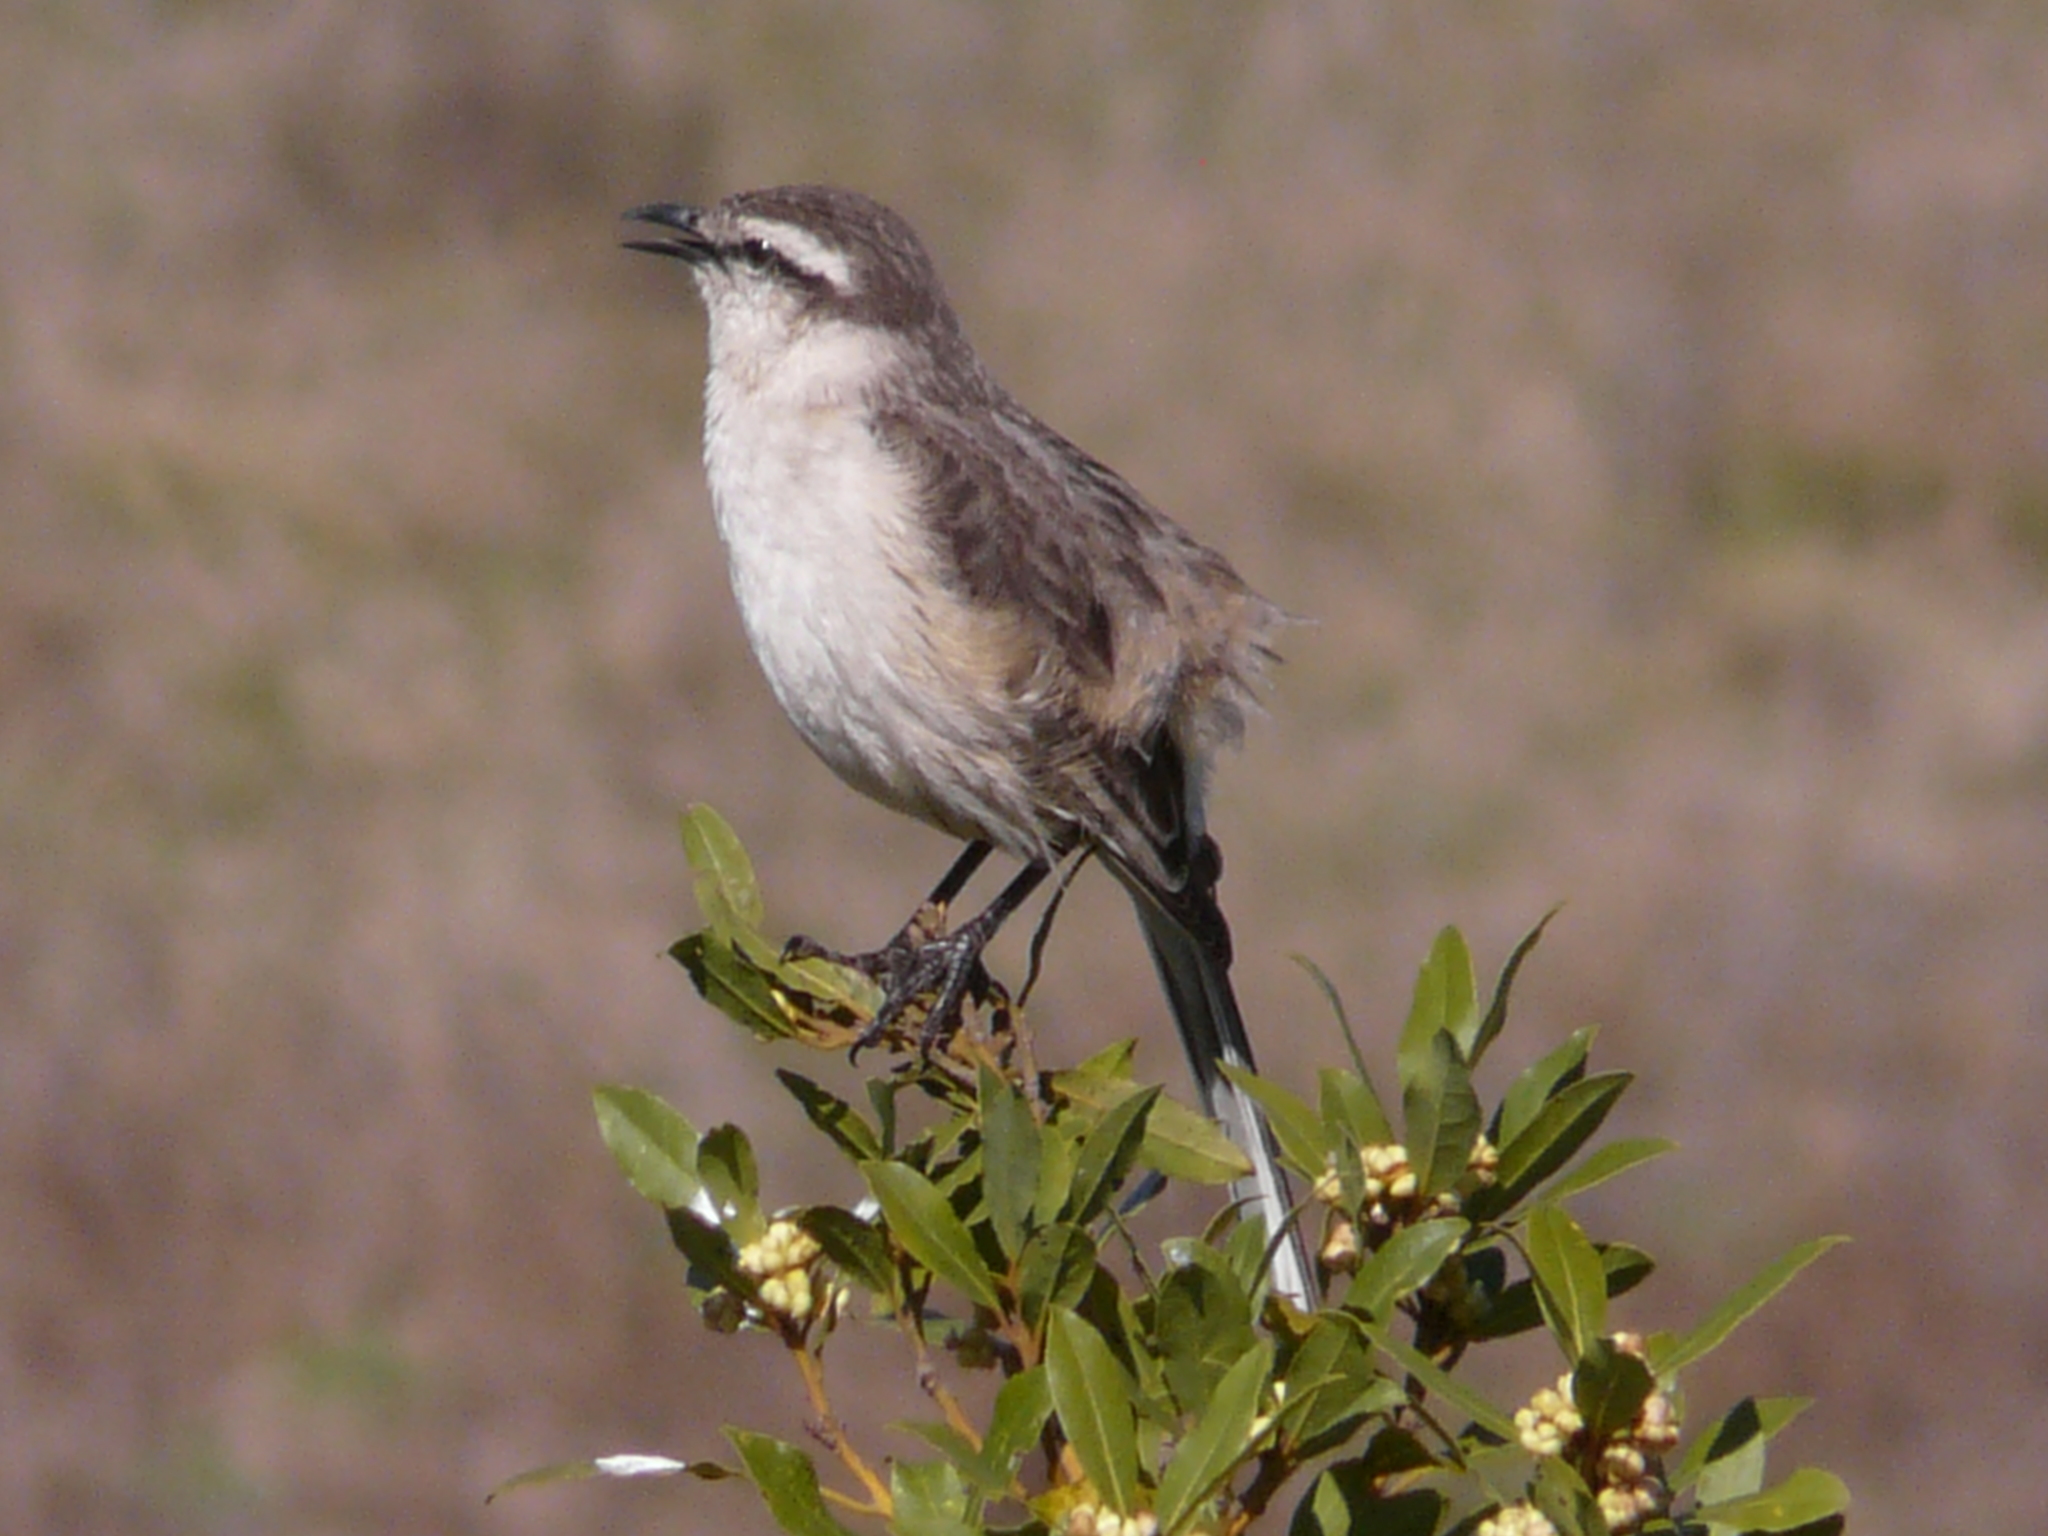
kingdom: Animalia
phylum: Chordata
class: Aves
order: Passeriformes
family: Mimidae
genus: Mimus
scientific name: Mimus saturninus
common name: Chalk-browed mockingbird
